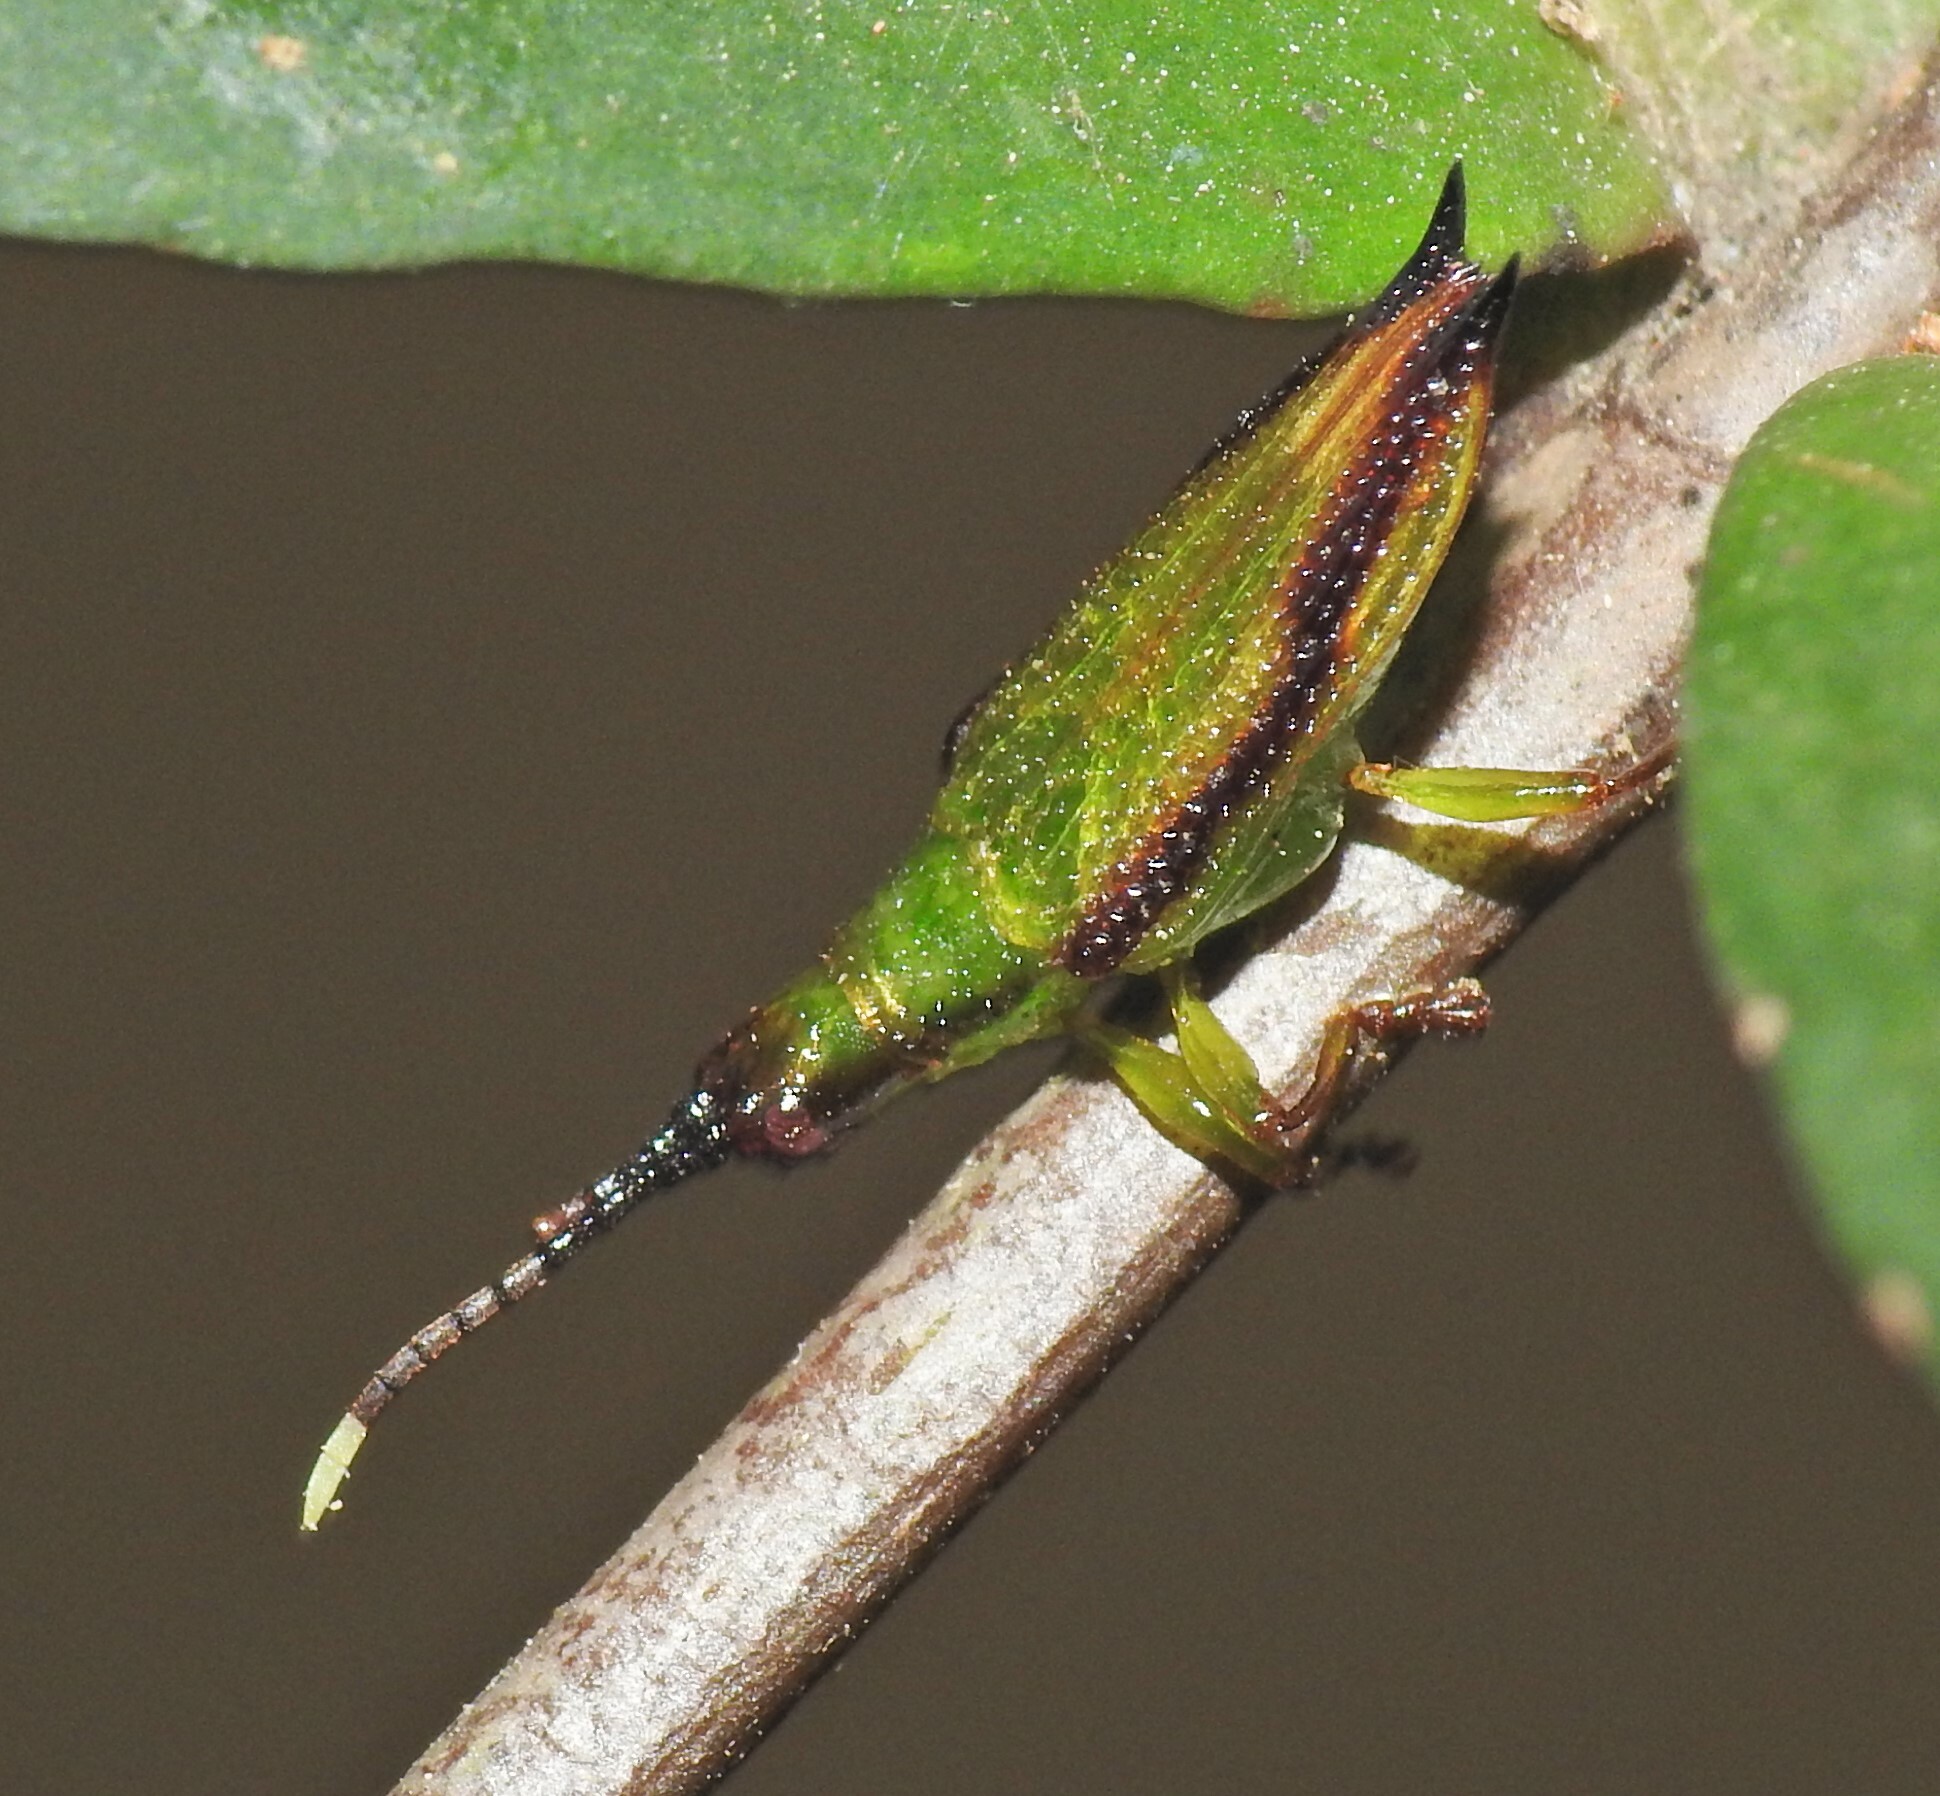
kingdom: Animalia
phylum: Arthropoda
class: Insecta
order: Coleoptera
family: Chrysomelidae
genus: Aproida
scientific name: Aproida balyi
